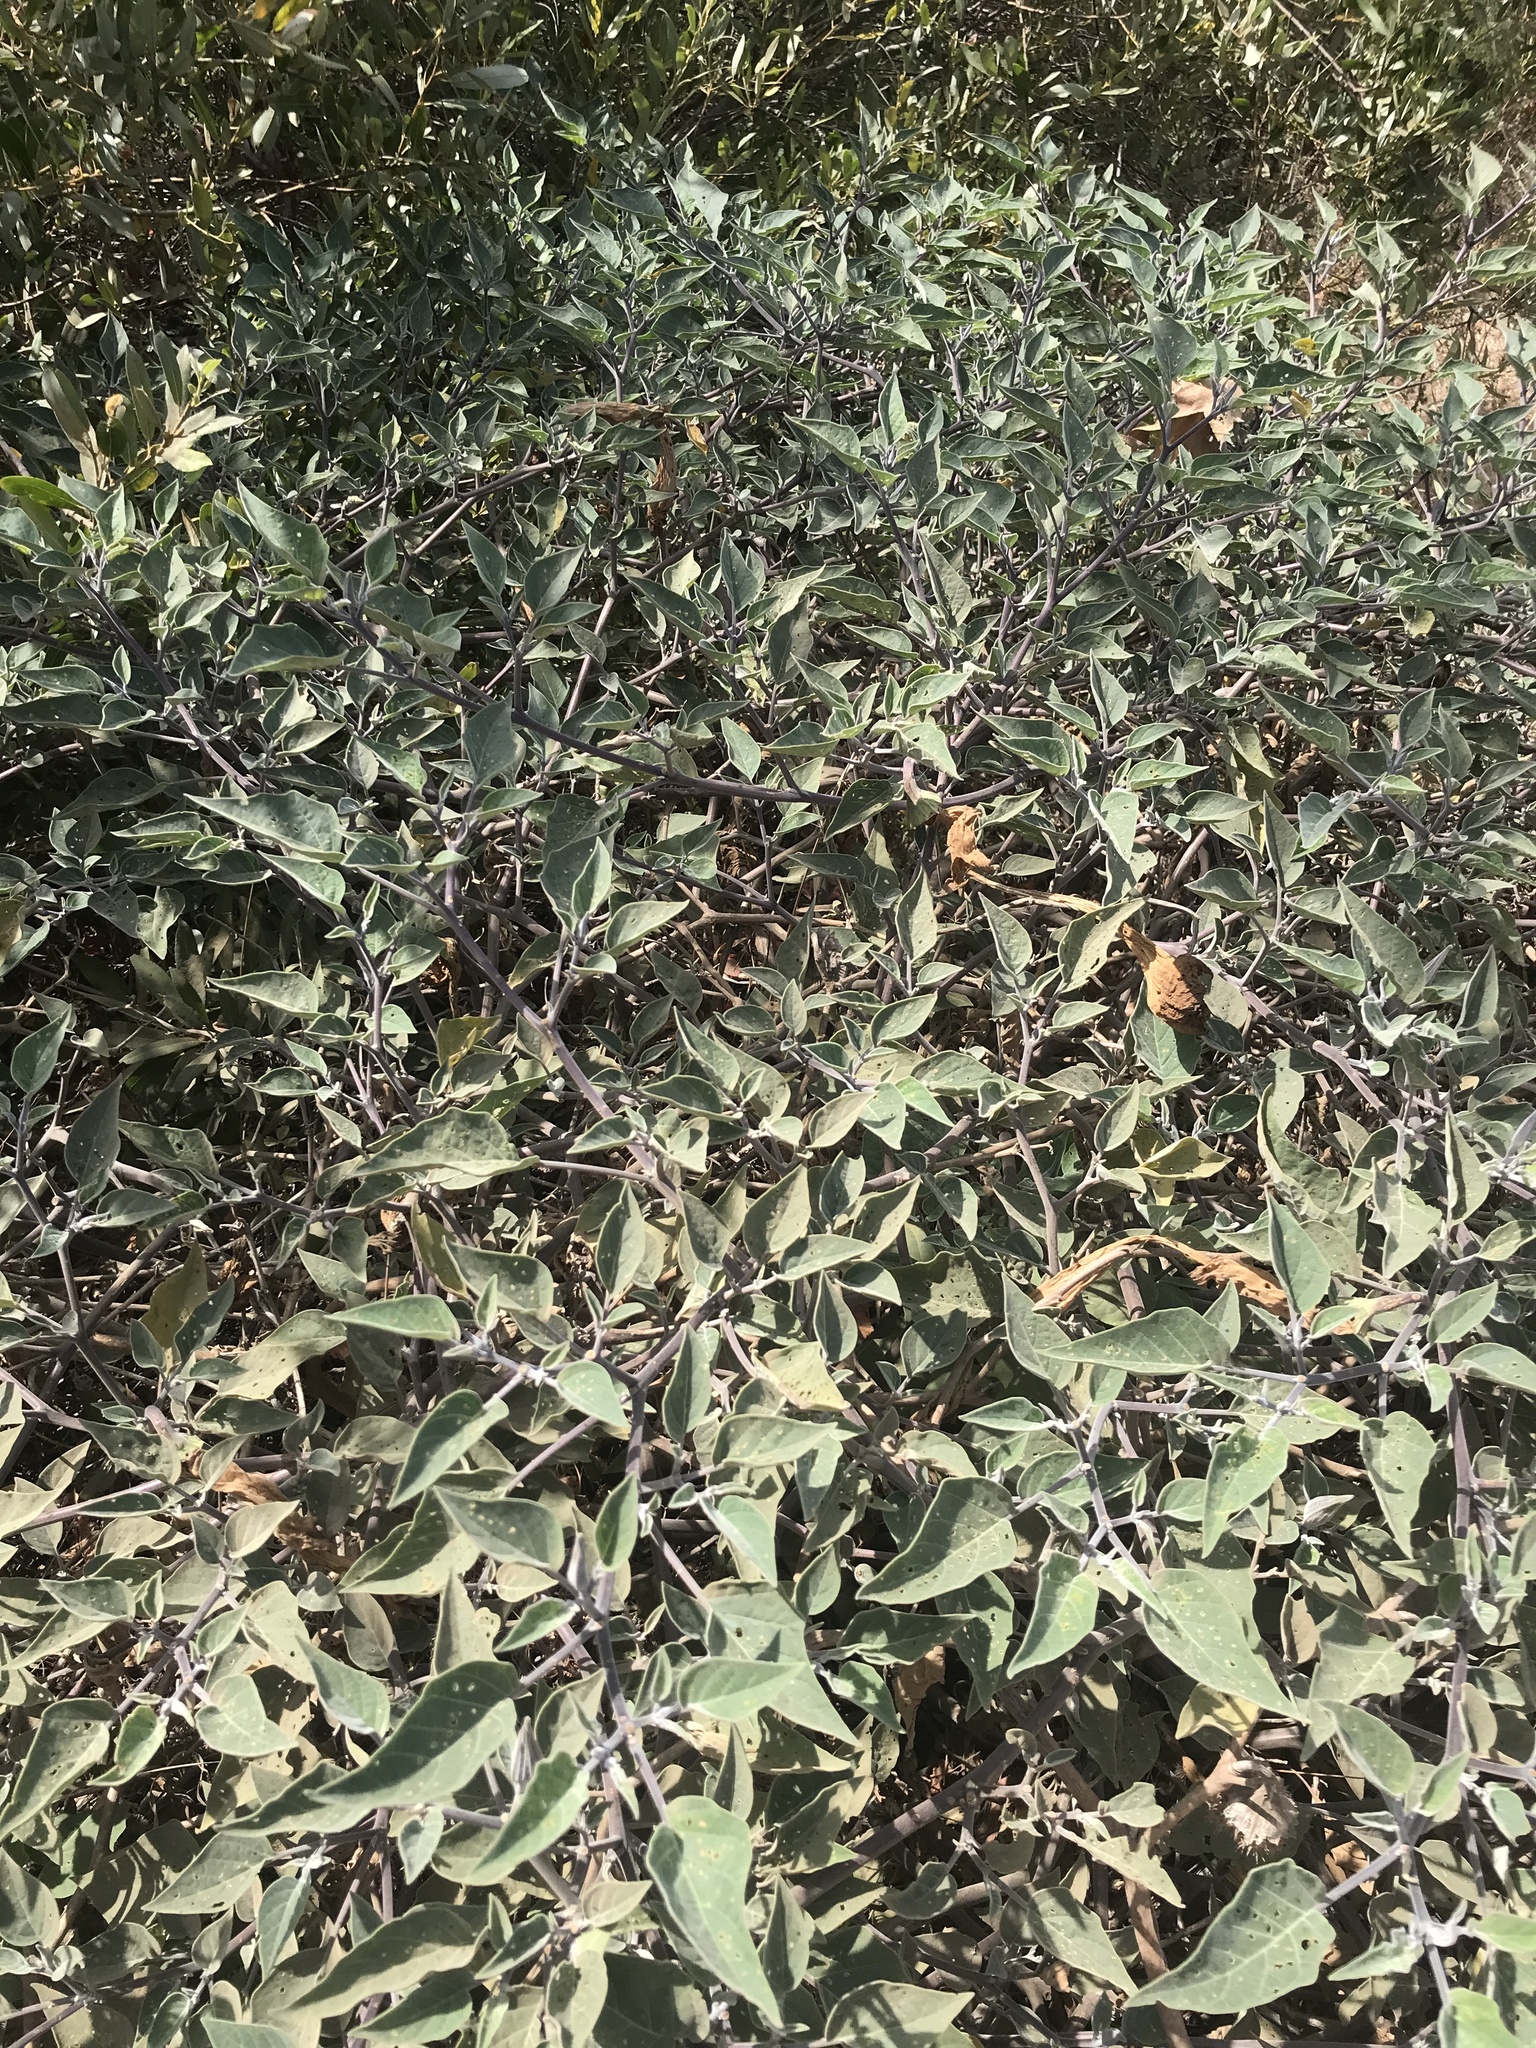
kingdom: Plantae
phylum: Tracheophyta
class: Magnoliopsida
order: Solanales
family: Solanaceae
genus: Datura
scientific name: Datura wrightii
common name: Sacred thorn-apple
